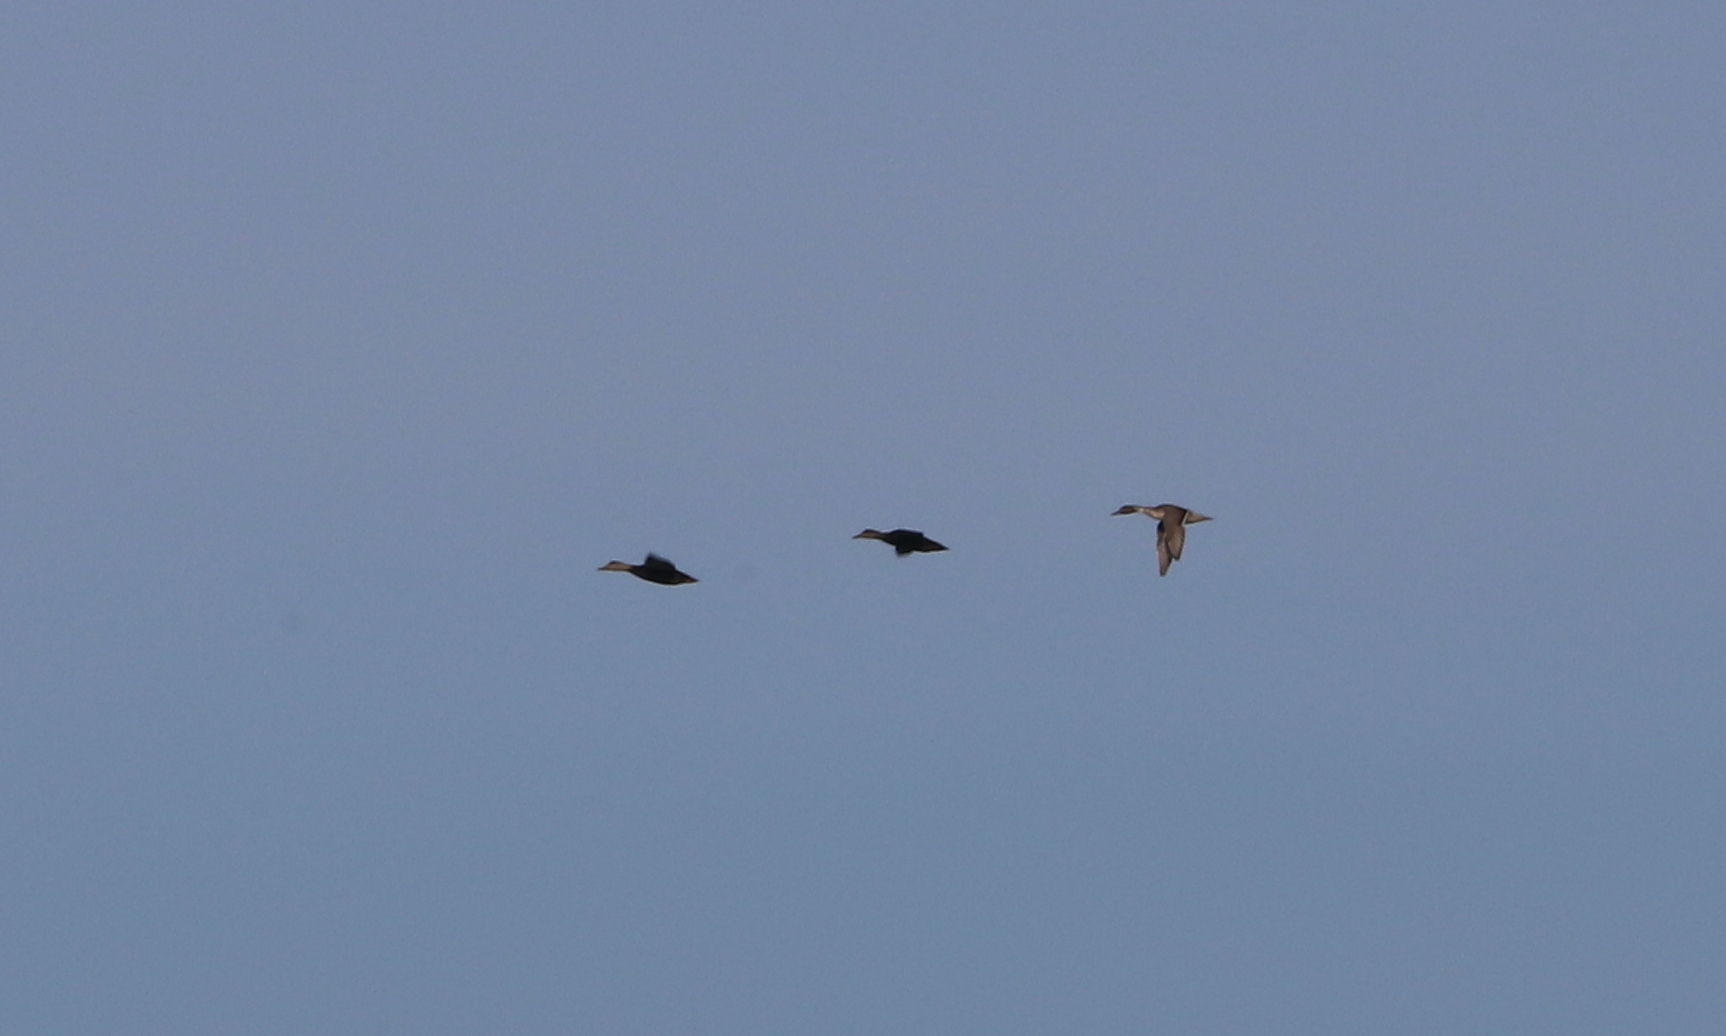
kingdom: Animalia
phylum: Chordata
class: Aves
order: Anseriformes
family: Anatidae
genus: Anas
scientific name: Anas acuta
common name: Northern pintail
